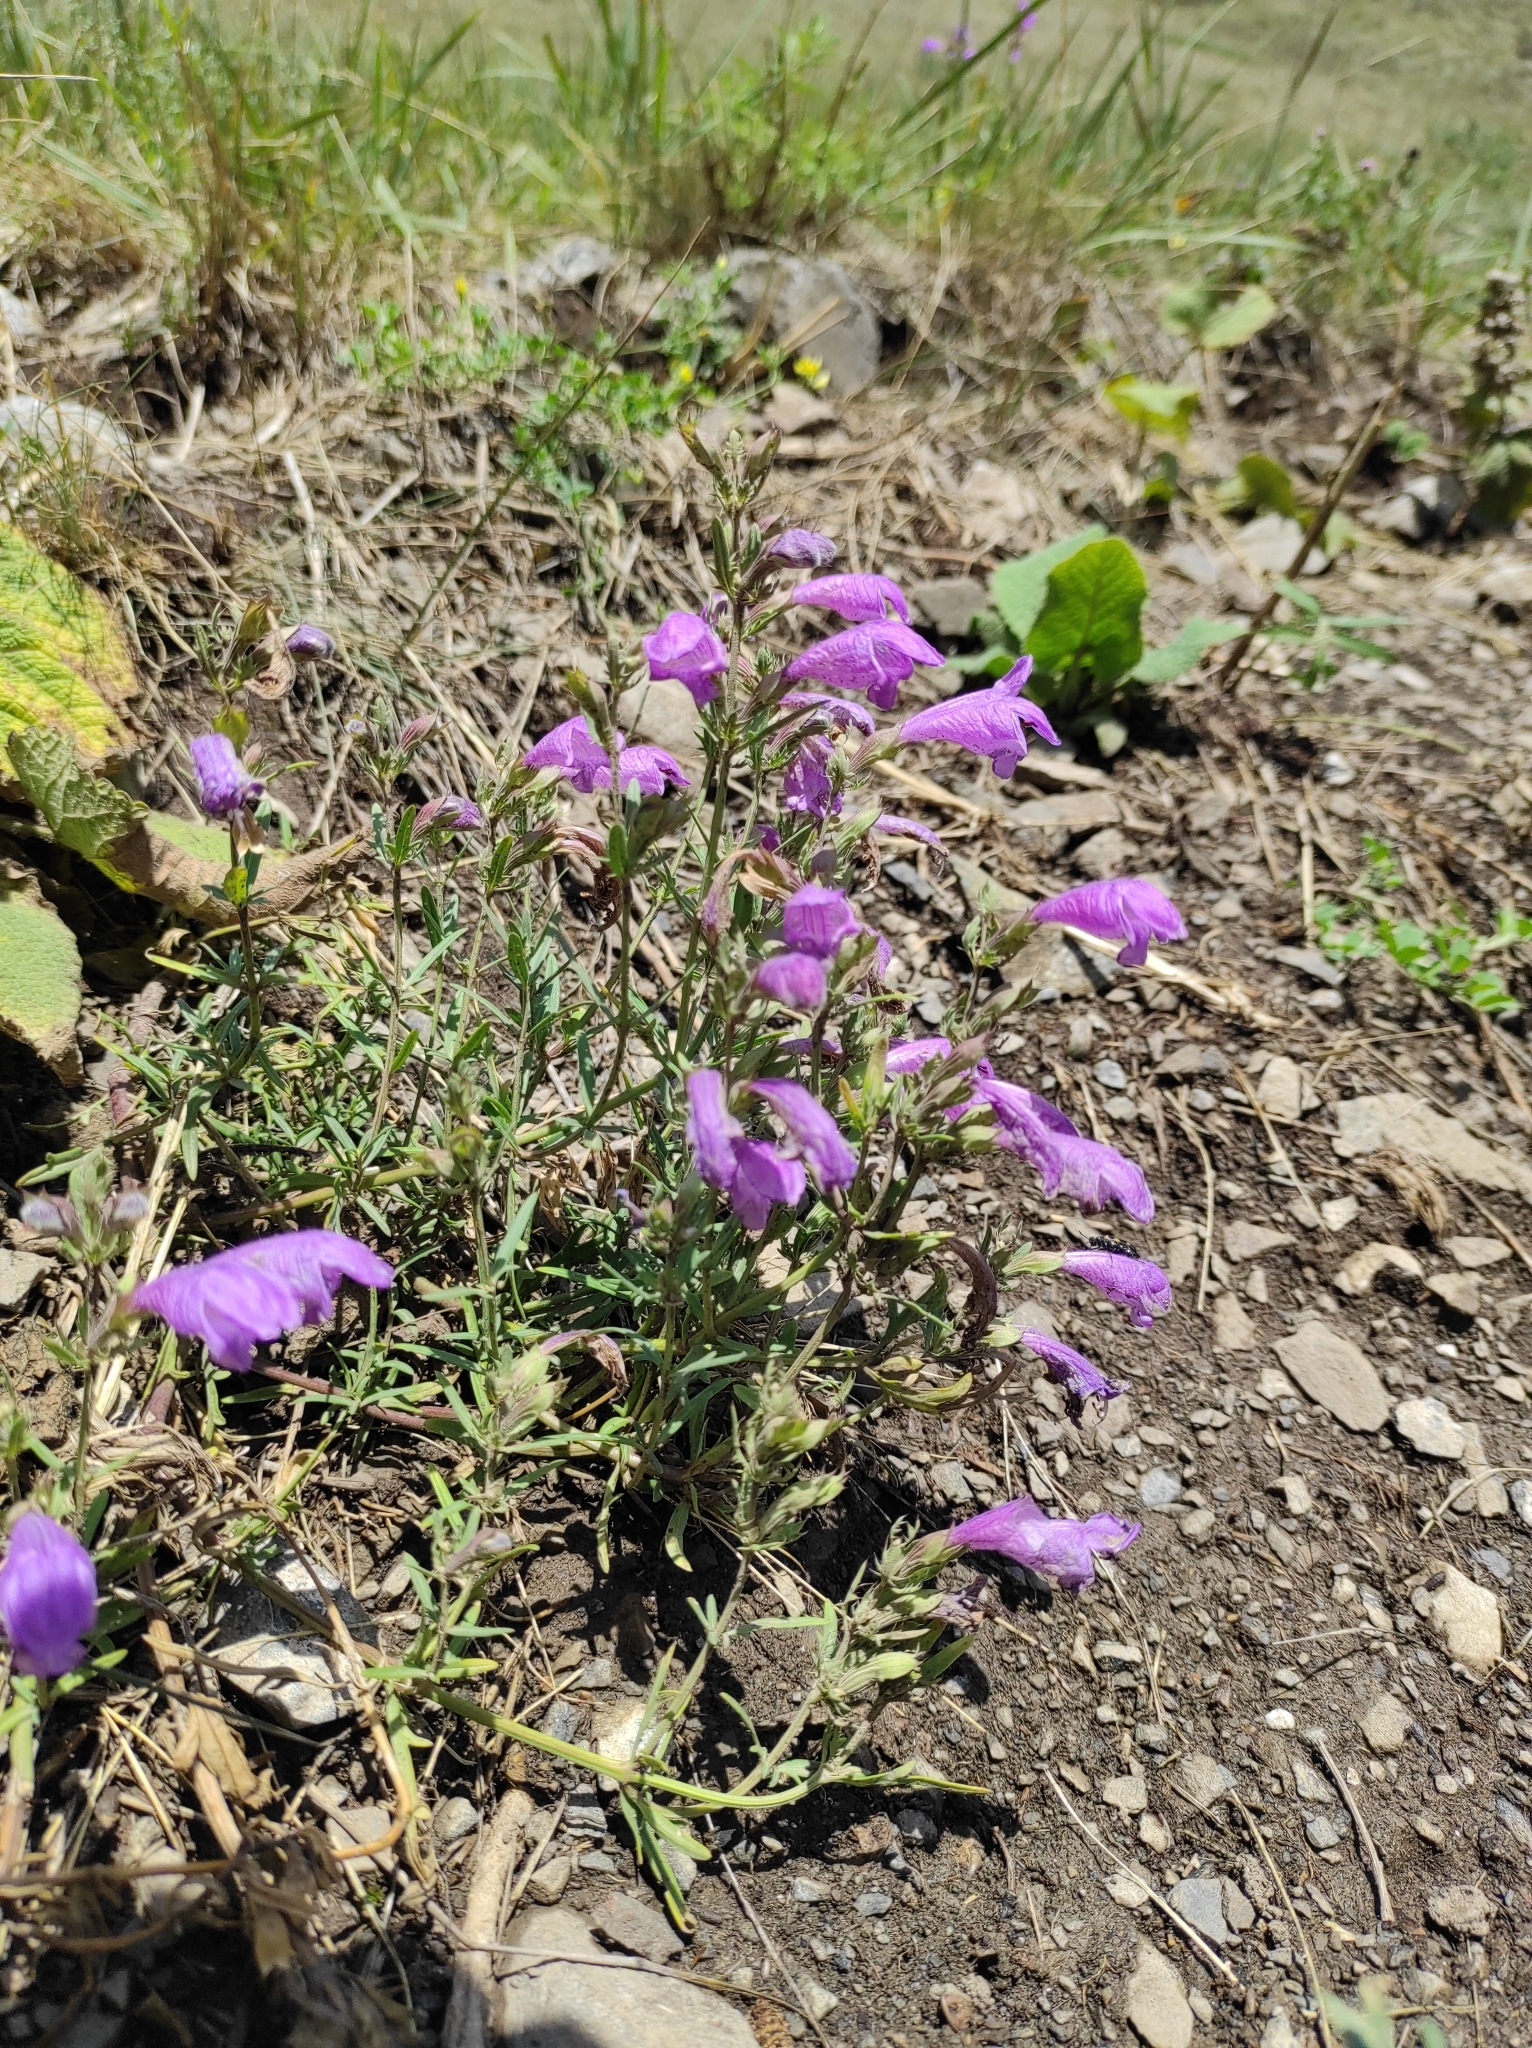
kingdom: Plantae
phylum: Tracheophyta
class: Magnoliopsida
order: Lamiales
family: Lamiaceae
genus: Dracocephalum
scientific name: Dracocephalum bipinnatum
